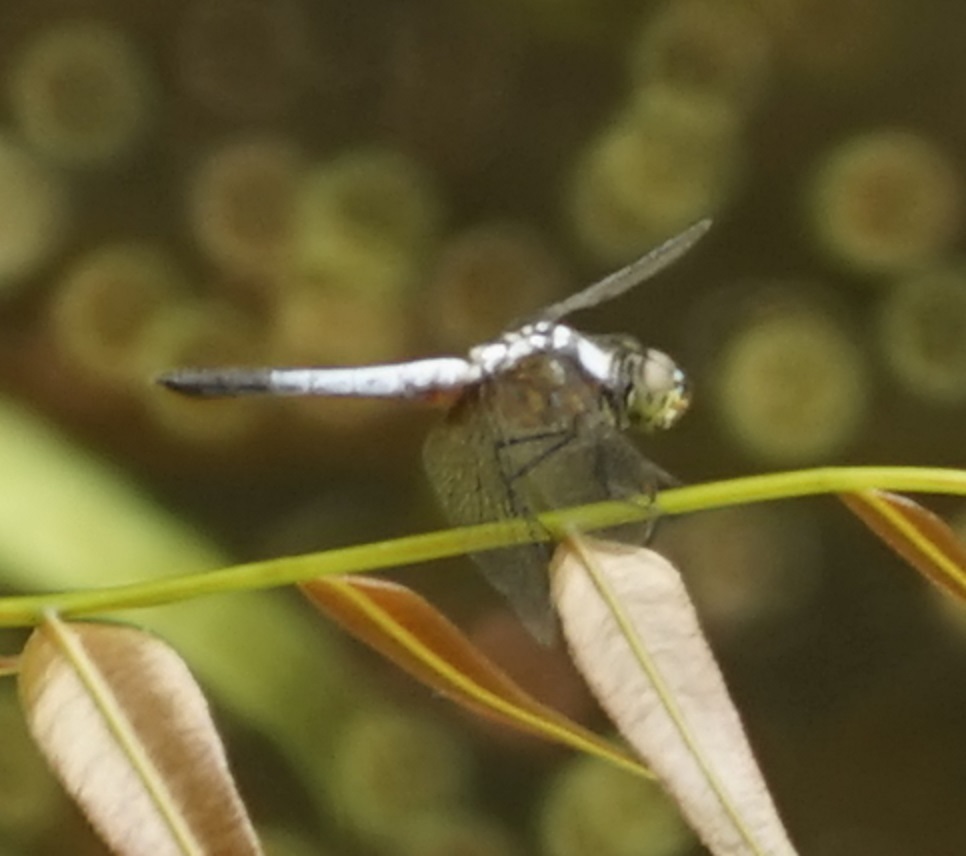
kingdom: Animalia
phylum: Arthropoda
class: Insecta
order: Odonata
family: Libellulidae
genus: Brachydiplax
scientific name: Brachydiplax chalybea
